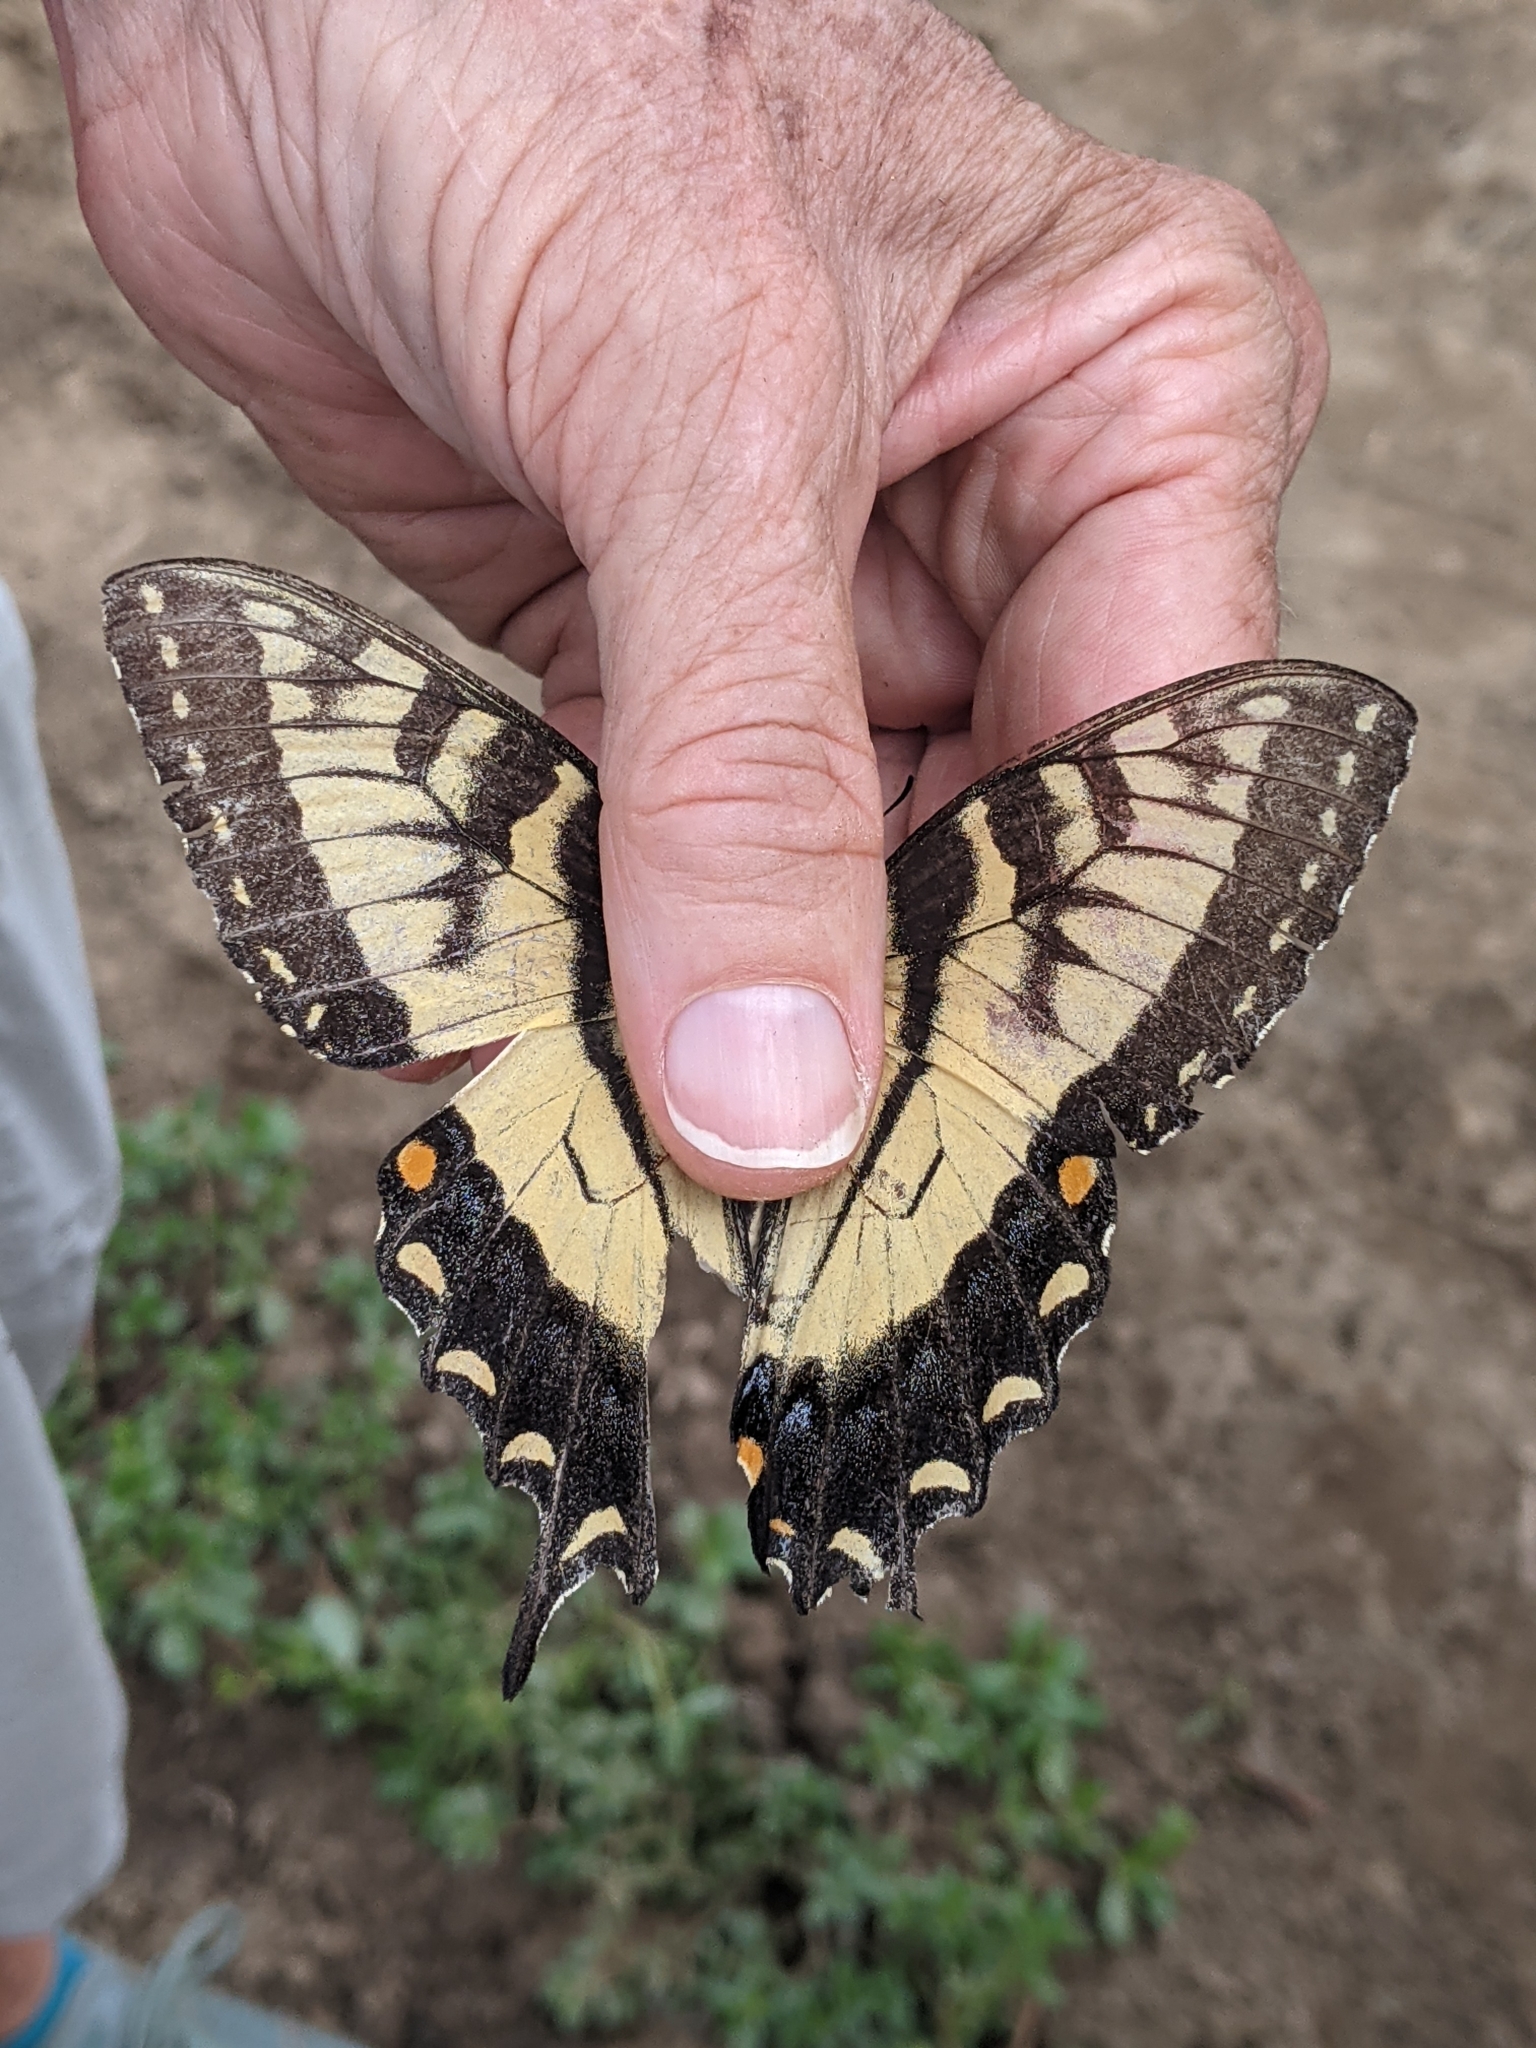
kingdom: Animalia
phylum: Arthropoda
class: Insecta
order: Lepidoptera
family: Papilionidae
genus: Papilio
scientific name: Papilio glaucus
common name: Tiger swallowtail
